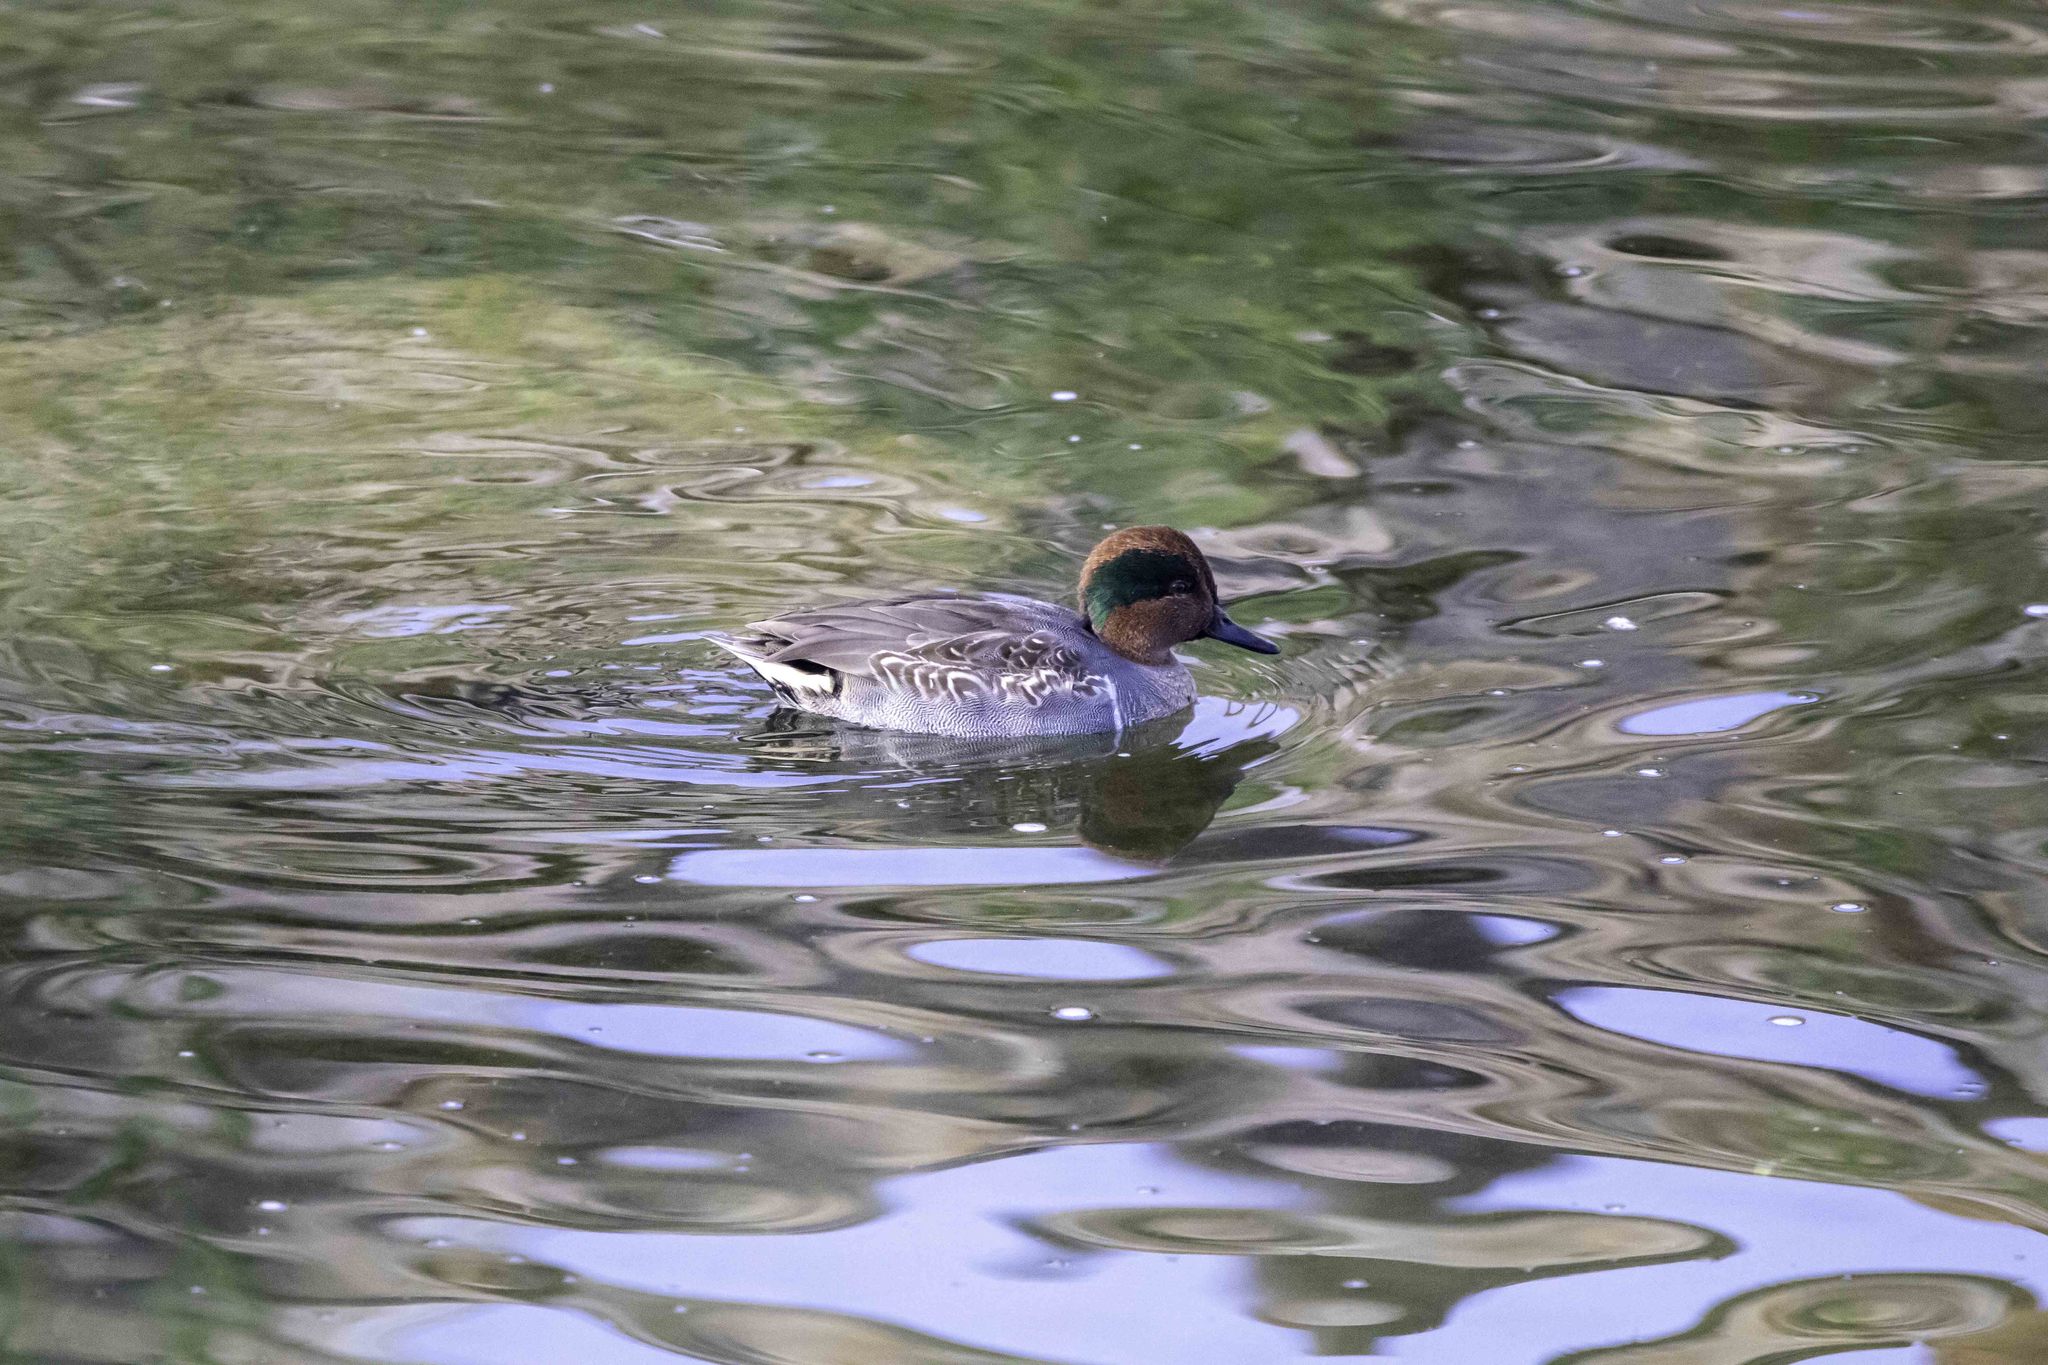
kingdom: Animalia
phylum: Chordata
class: Aves
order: Anseriformes
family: Anatidae
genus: Anas
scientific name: Anas crecca
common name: Eurasian teal
